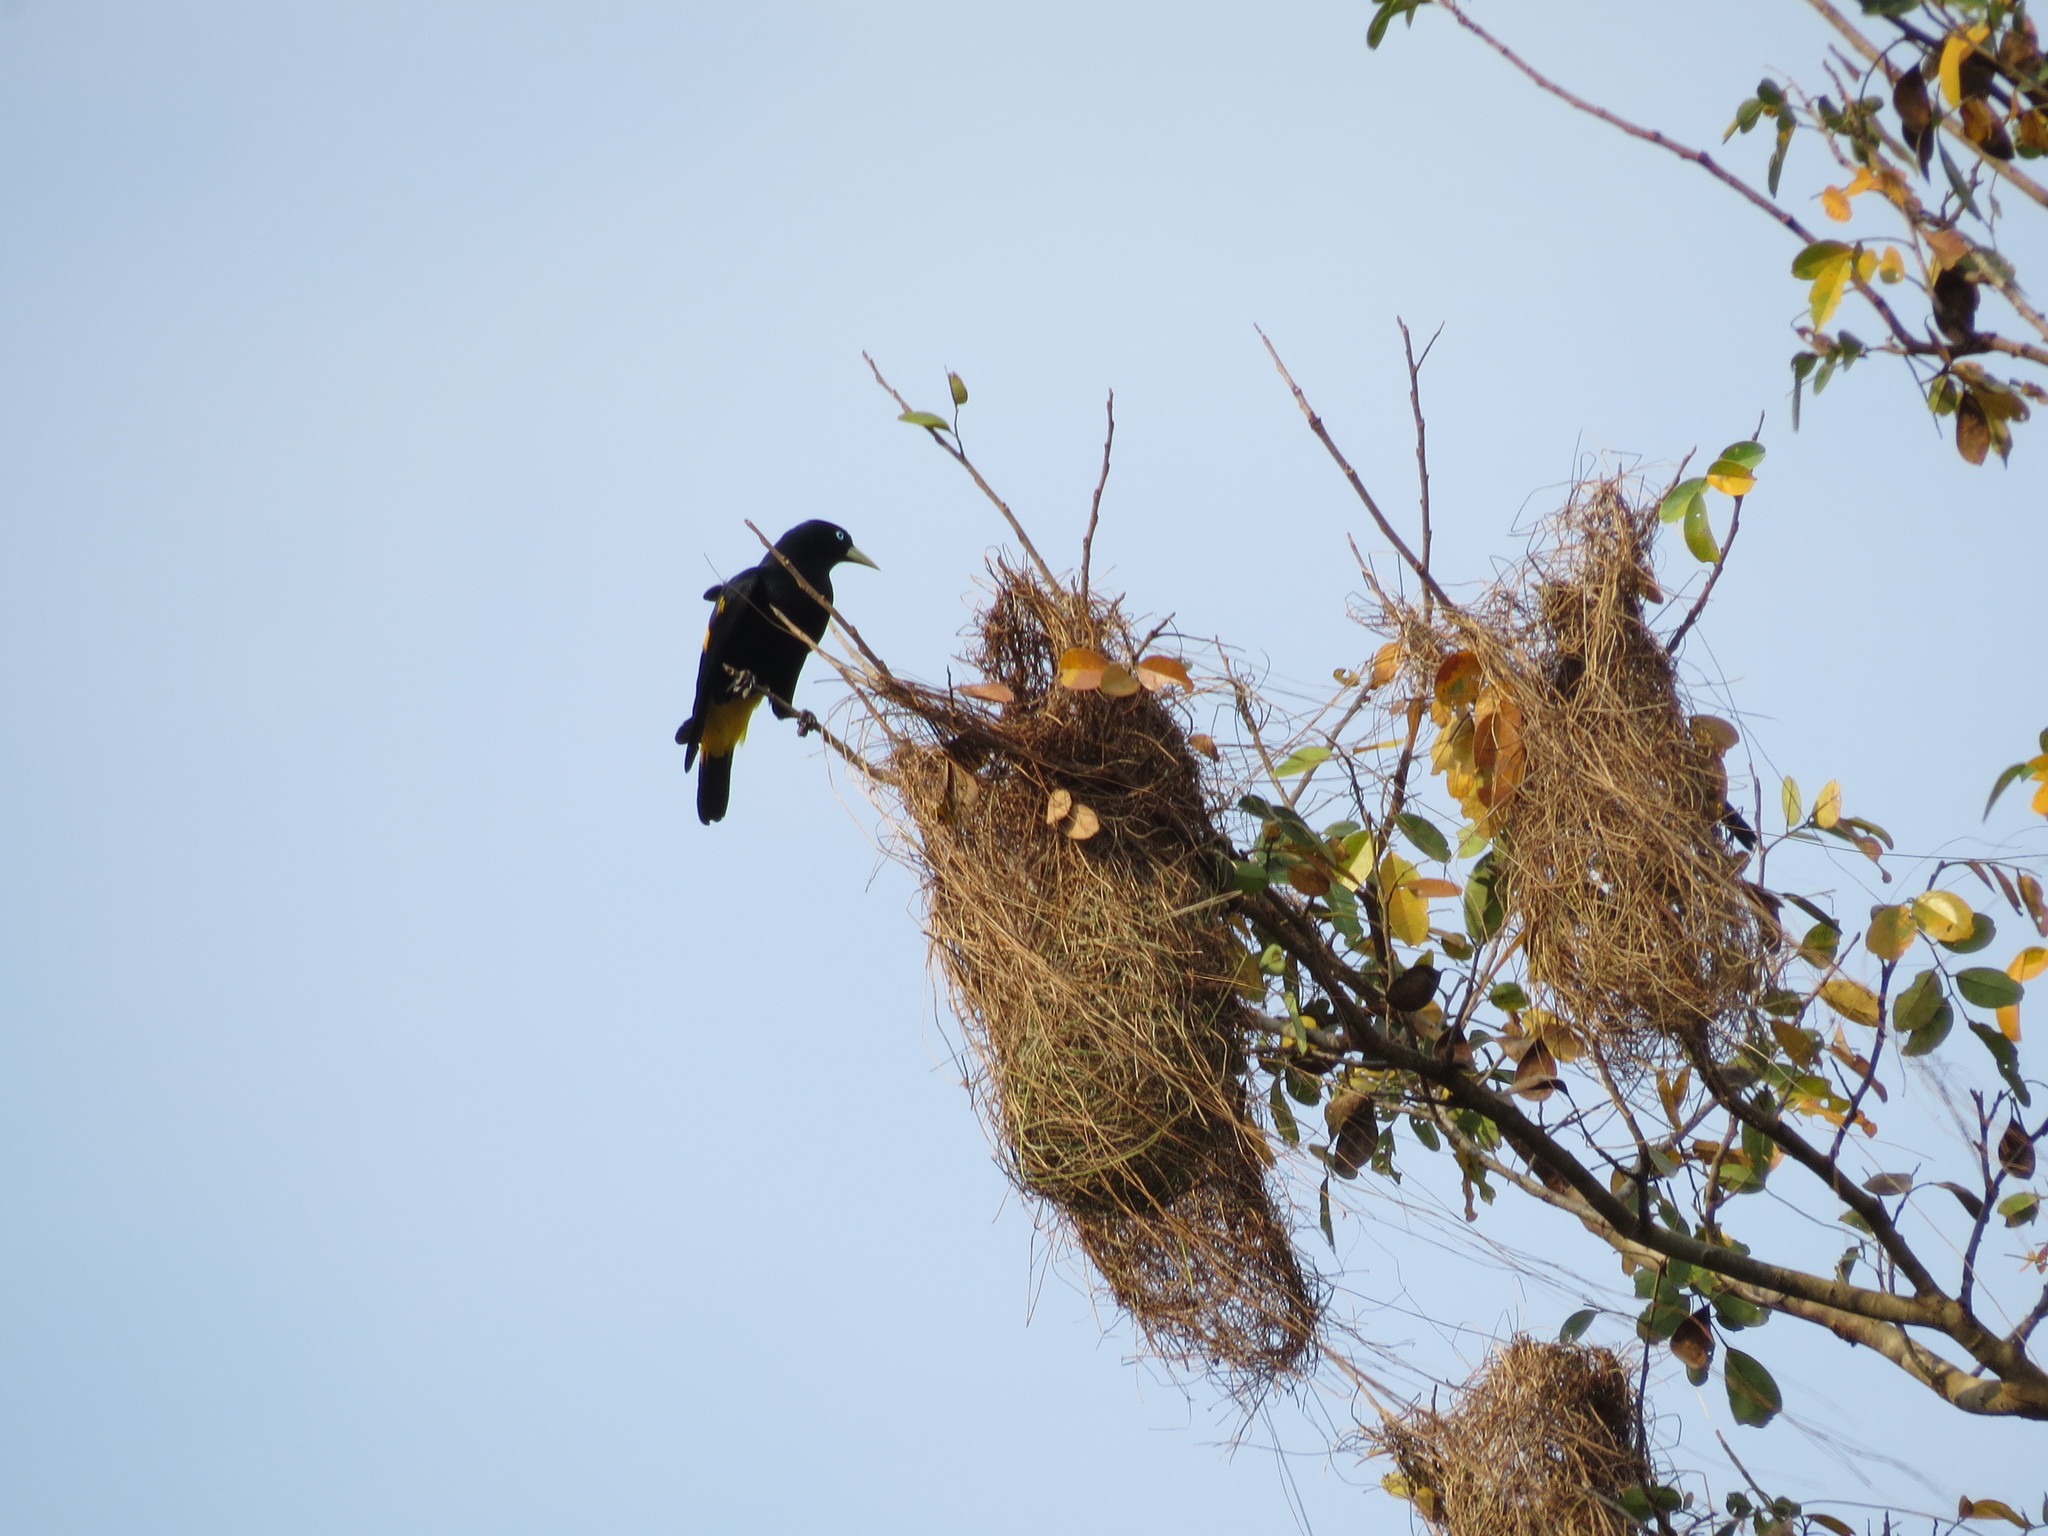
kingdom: Animalia
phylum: Chordata
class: Aves
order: Passeriformes
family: Icteridae
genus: Cacicus
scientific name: Cacicus cela
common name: Yellow-rumped cacique
